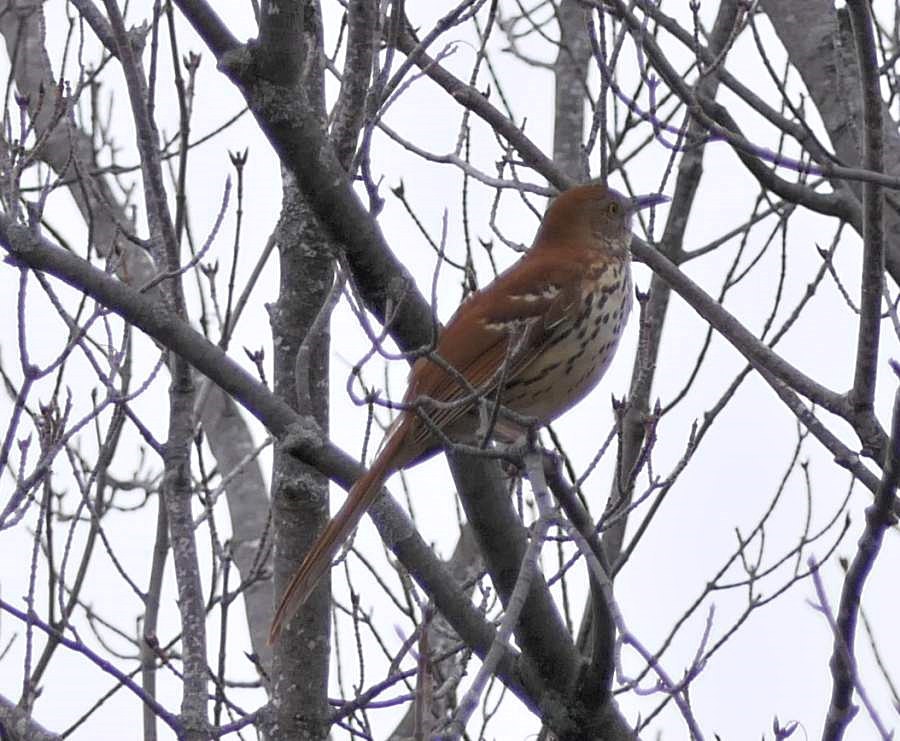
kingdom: Animalia
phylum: Chordata
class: Aves
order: Passeriformes
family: Mimidae
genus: Toxostoma
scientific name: Toxostoma rufum
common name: Brown thrasher
